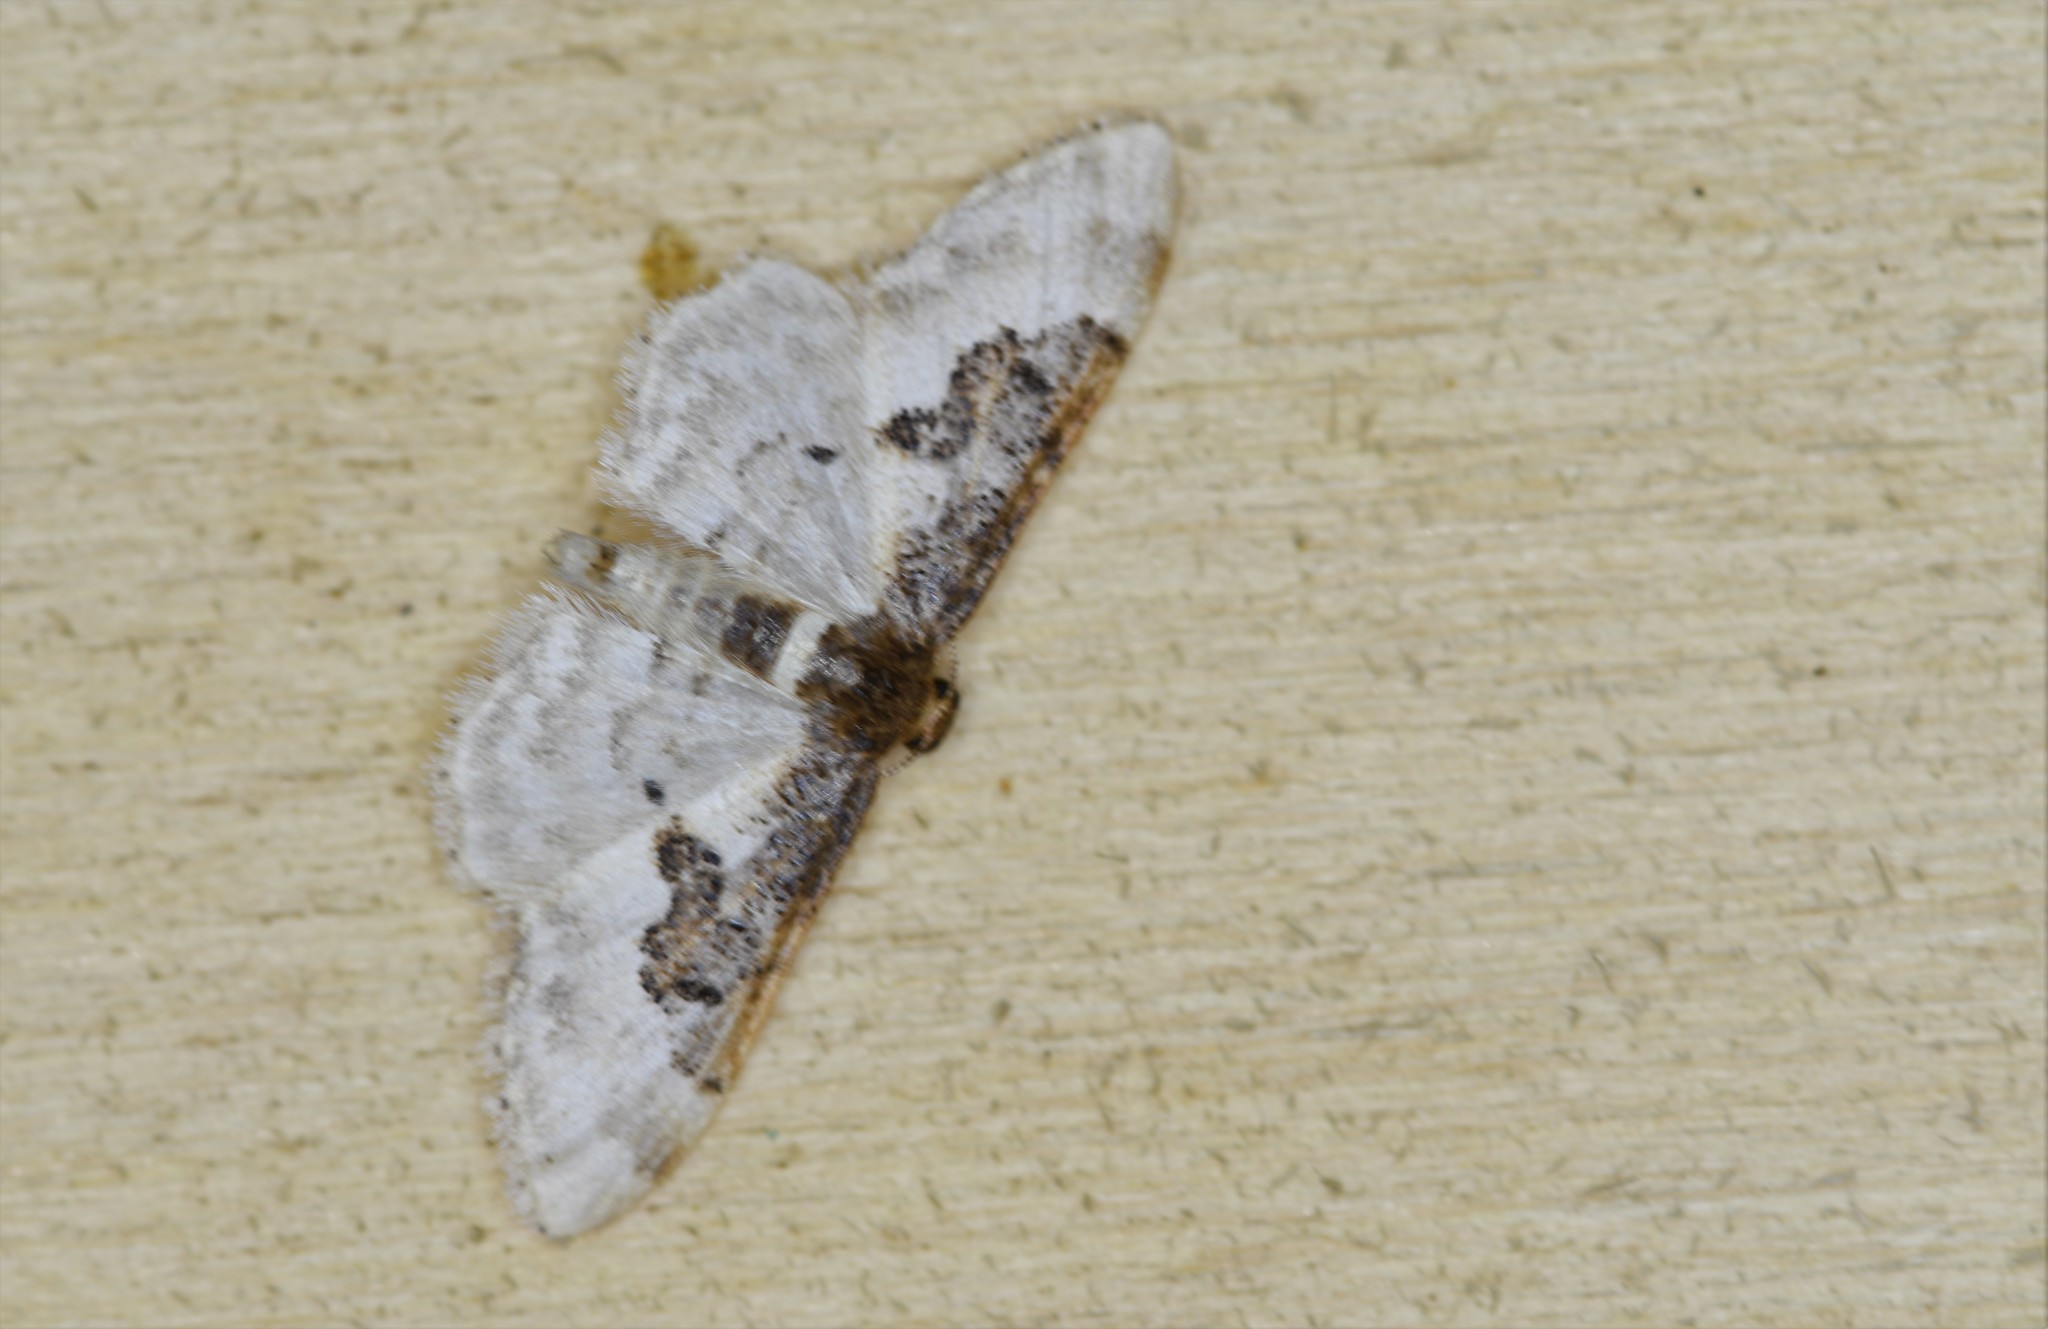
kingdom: Animalia
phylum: Arthropoda
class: Insecta
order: Lepidoptera
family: Geometridae
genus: Idaea
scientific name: Idaea rusticata
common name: Least carpet
